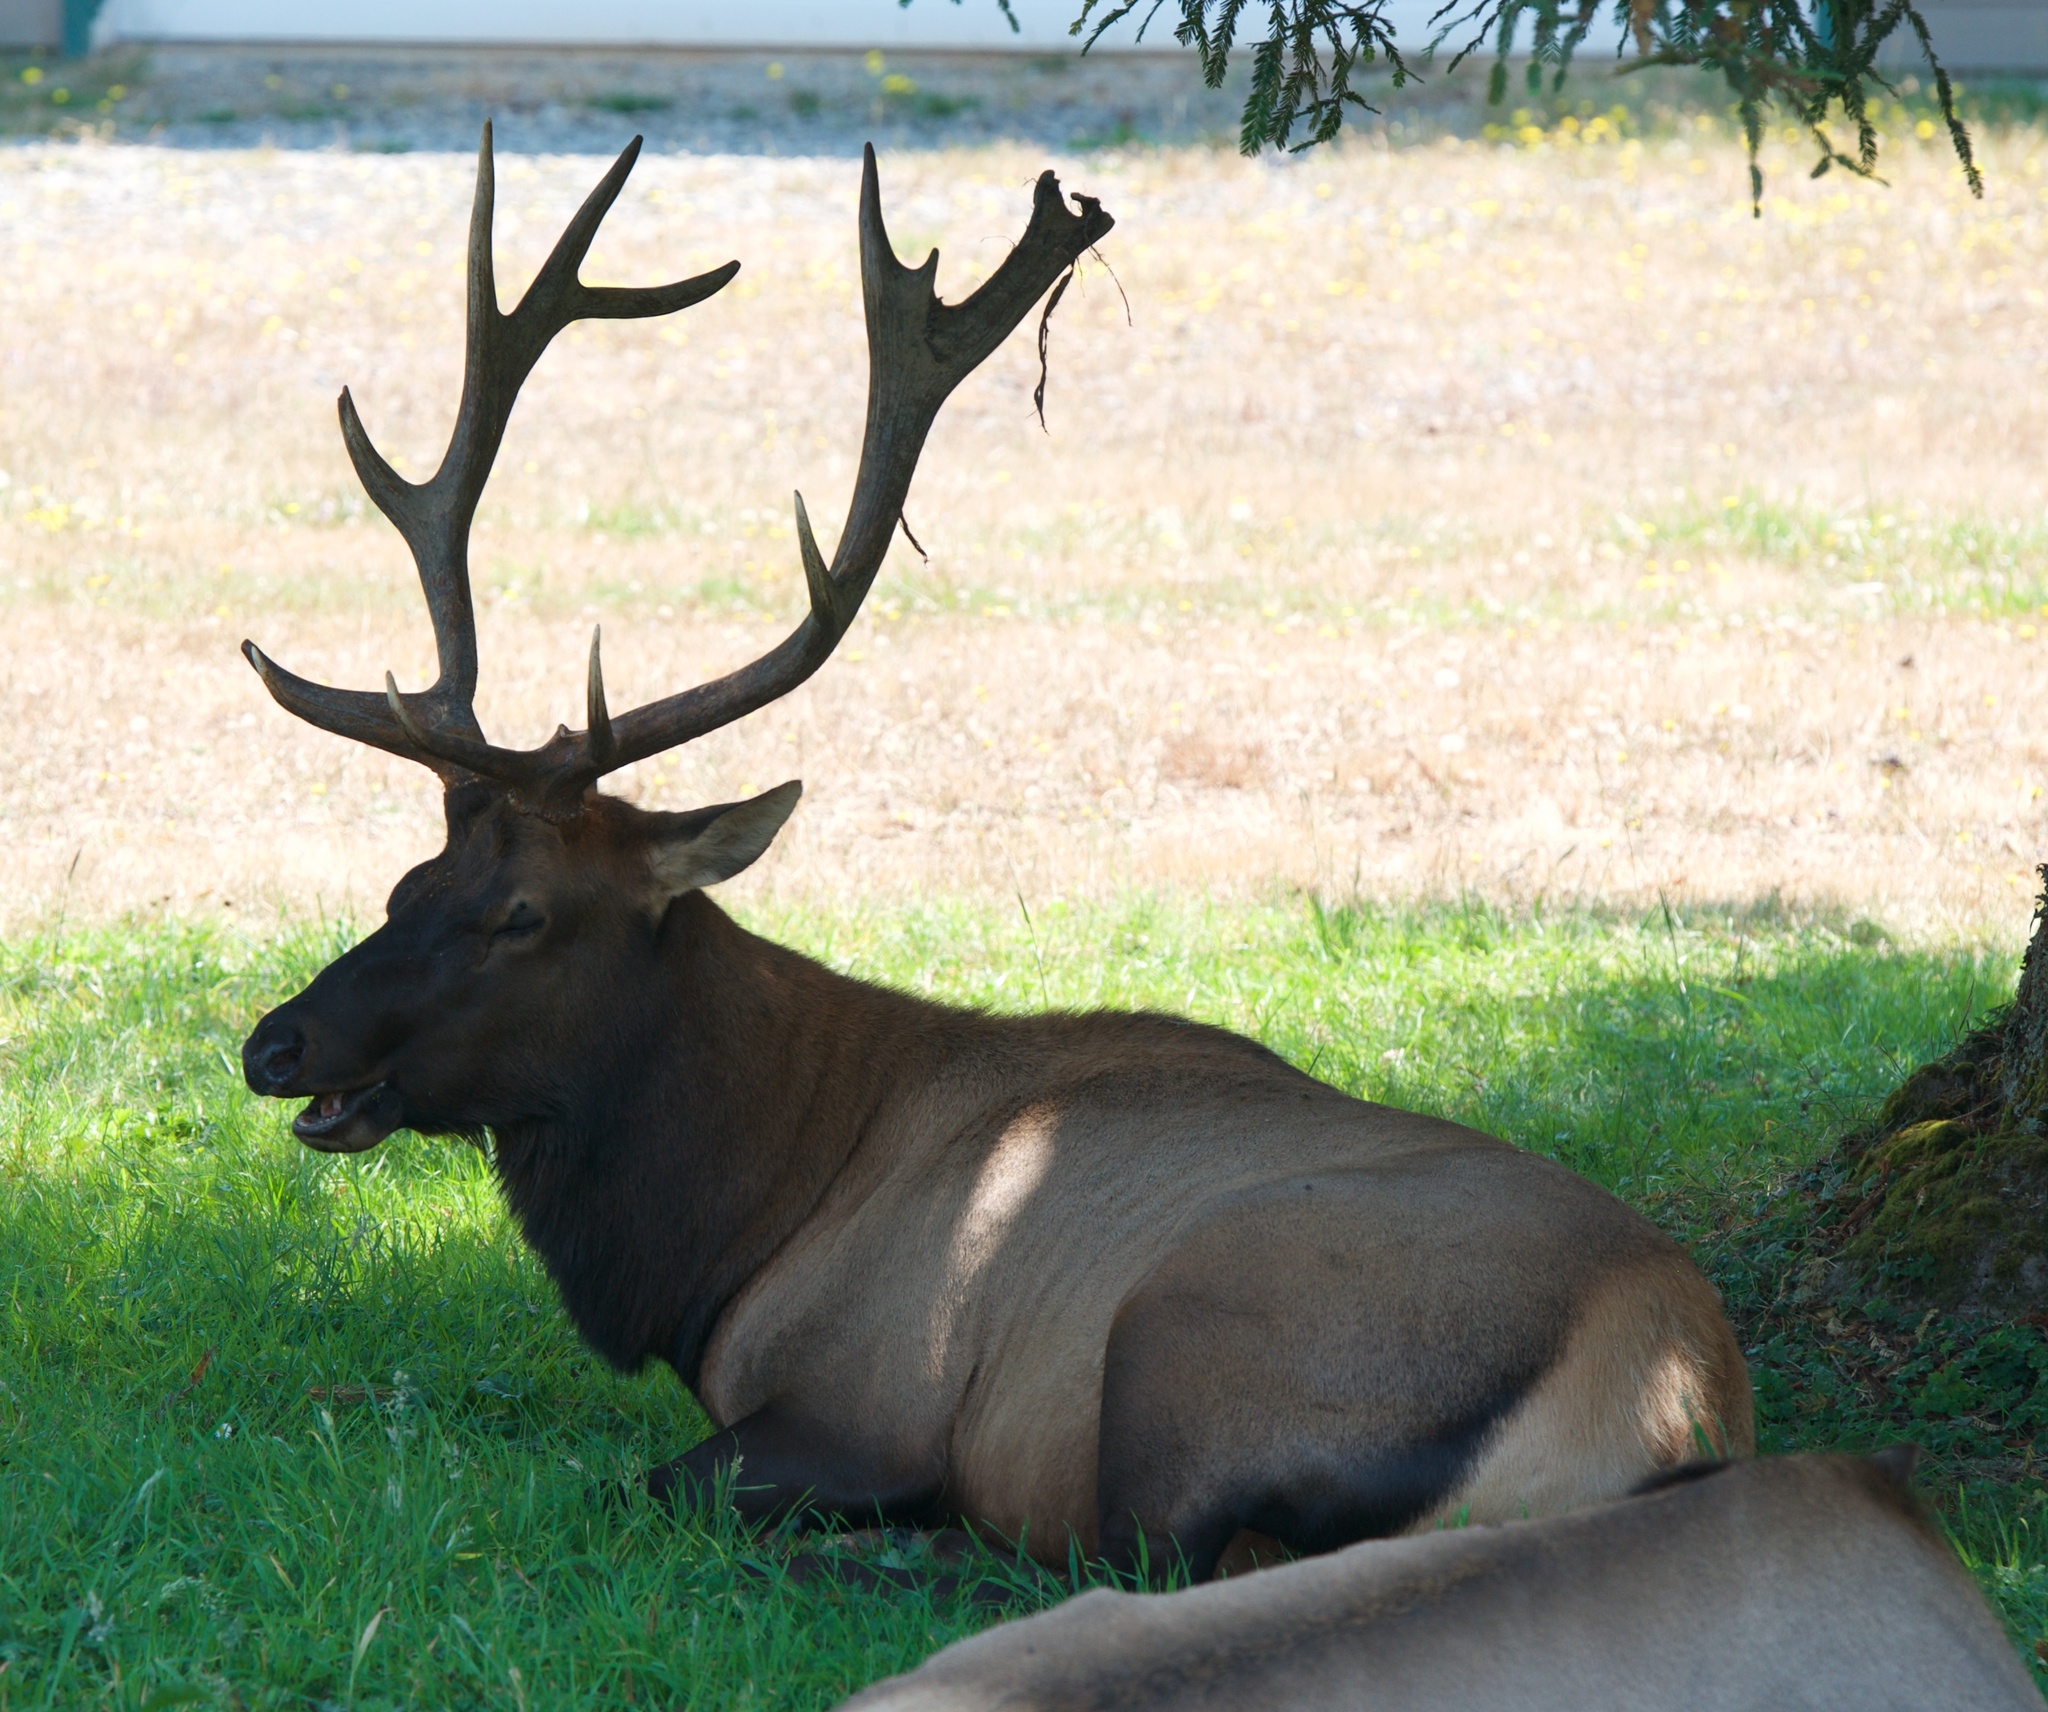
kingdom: Animalia
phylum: Chordata
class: Mammalia
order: Artiodactyla
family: Cervidae
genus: Cervus
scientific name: Cervus elaphus
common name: Red deer
